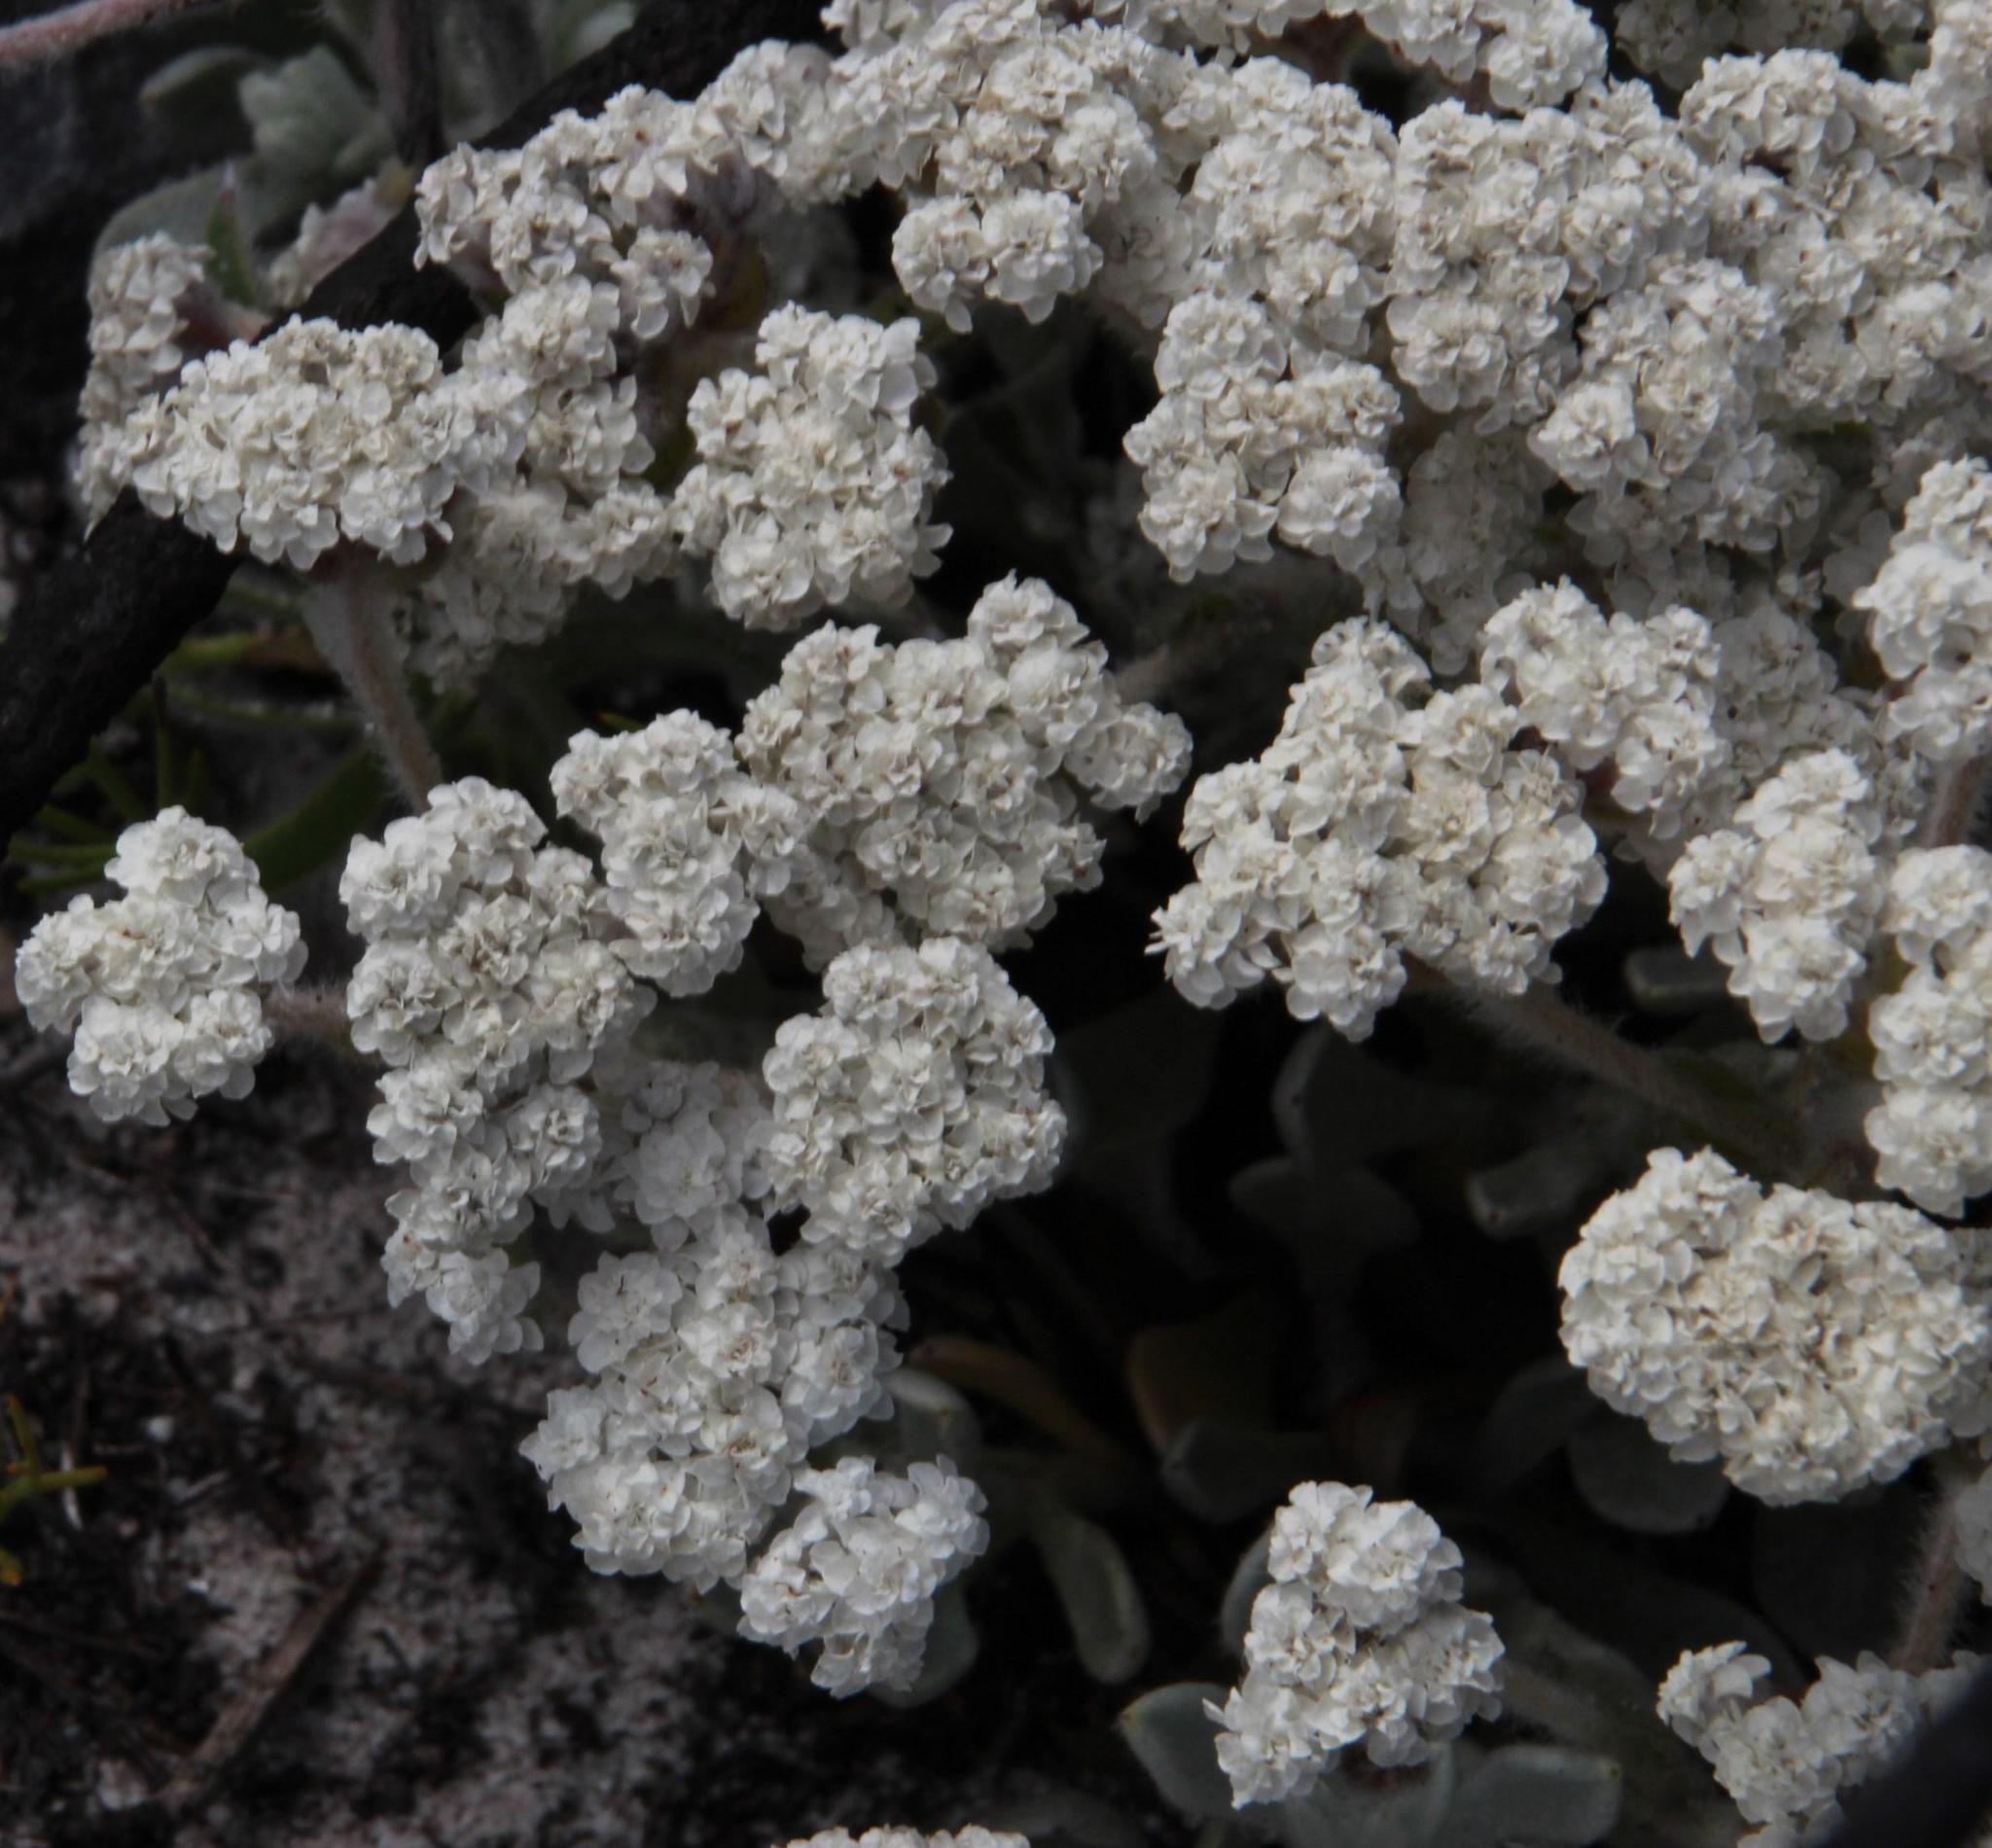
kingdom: Plantae
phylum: Tracheophyta
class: Magnoliopsida
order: Asterales
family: Asteraceae
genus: Petalacte
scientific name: Petalacte coronata
